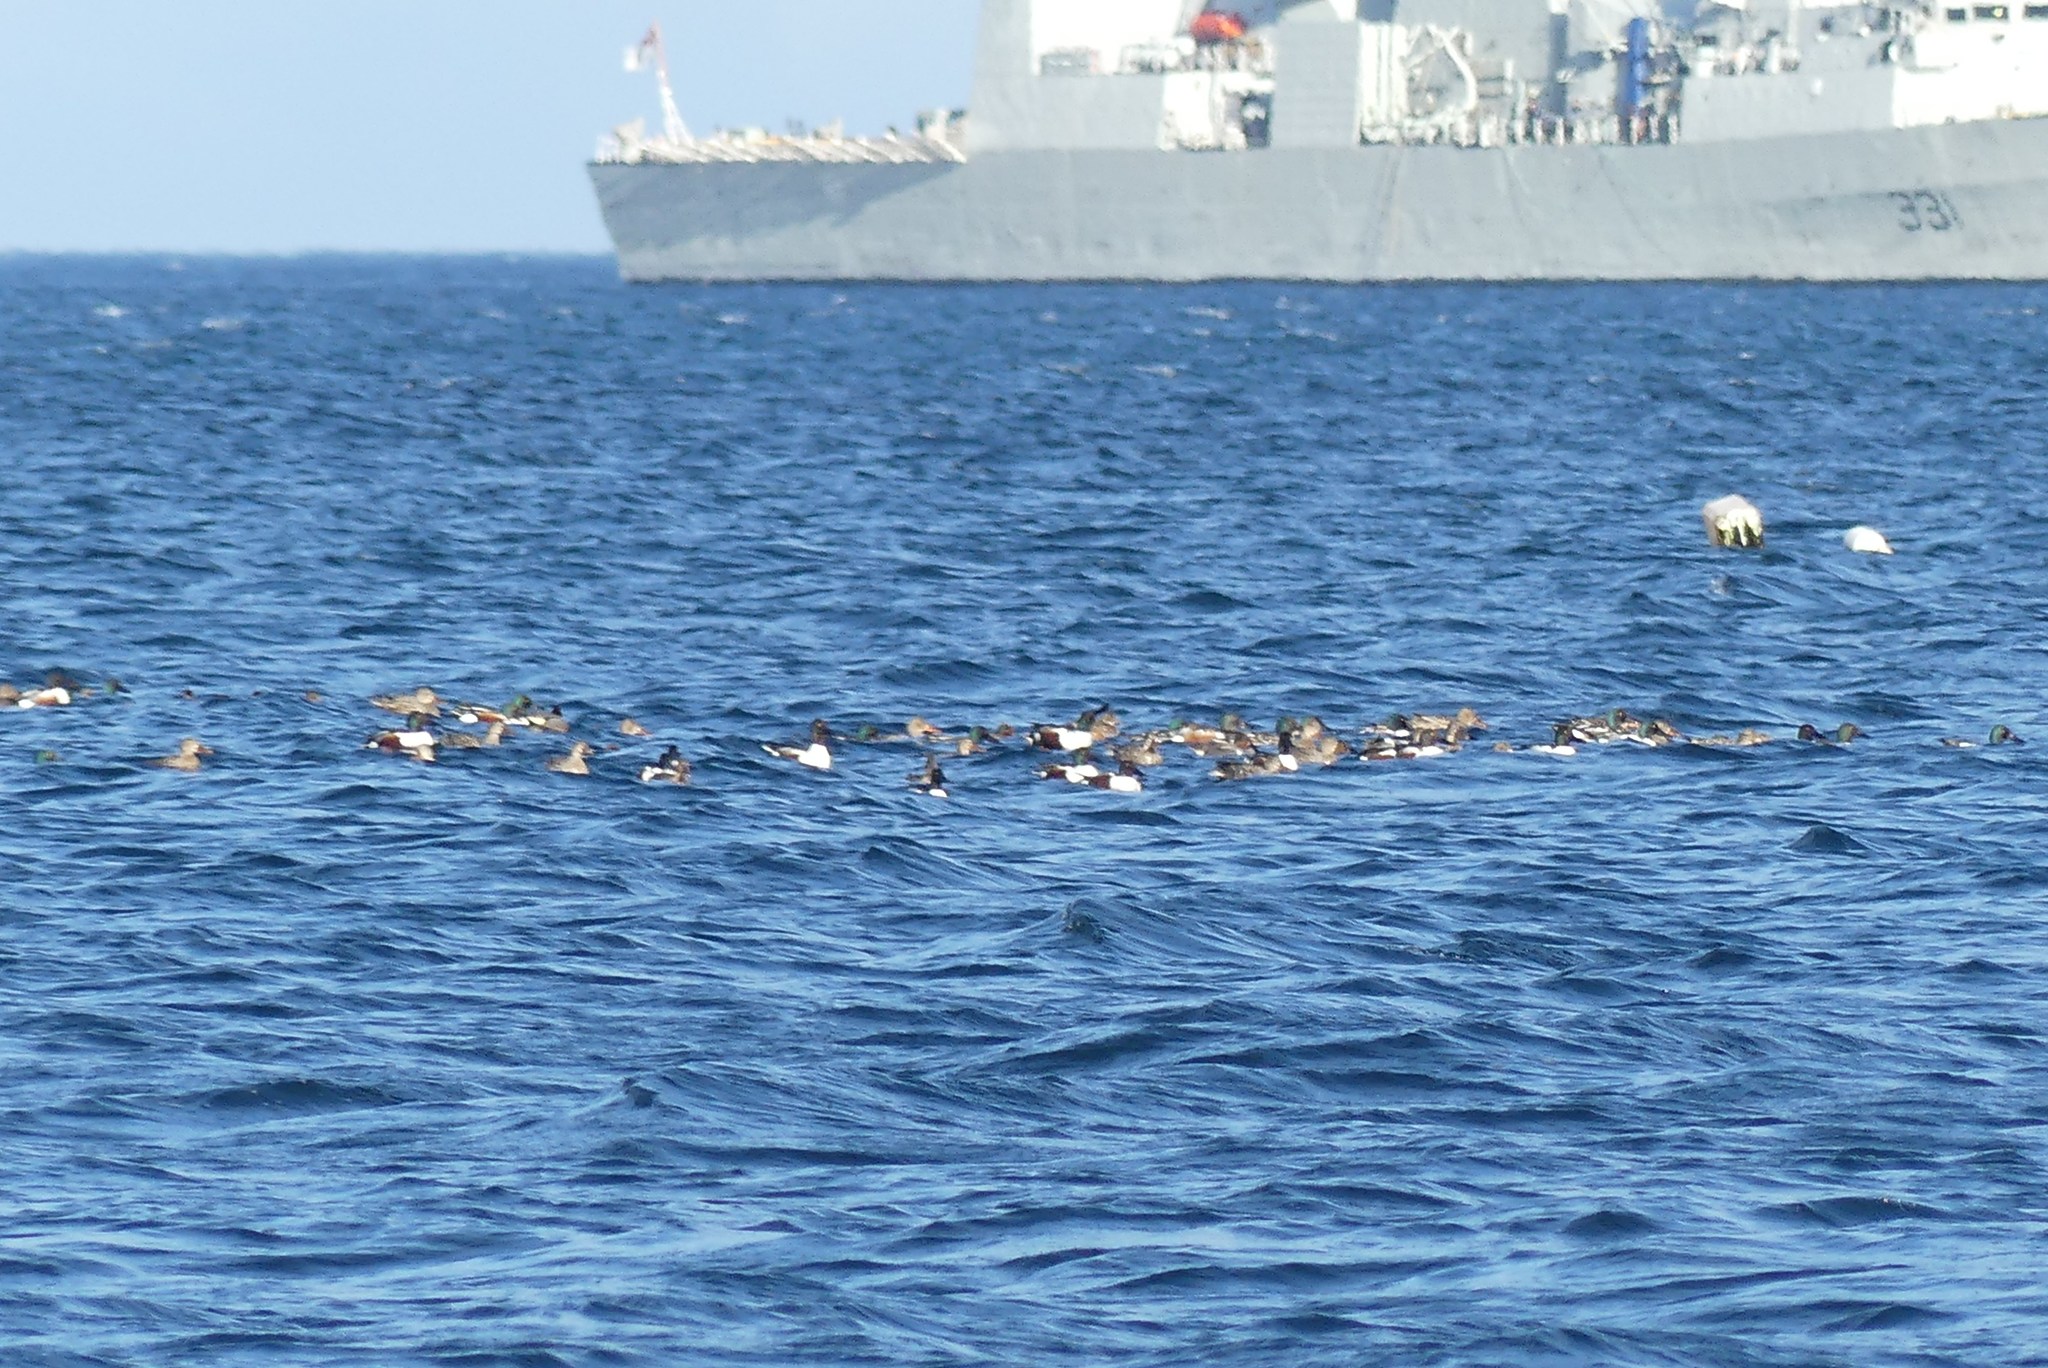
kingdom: Animalia
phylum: Chordata
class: Aves
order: Anseriformes
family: Anatidae
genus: Spatula
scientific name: Spatula clypeata
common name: Northern shoveler
